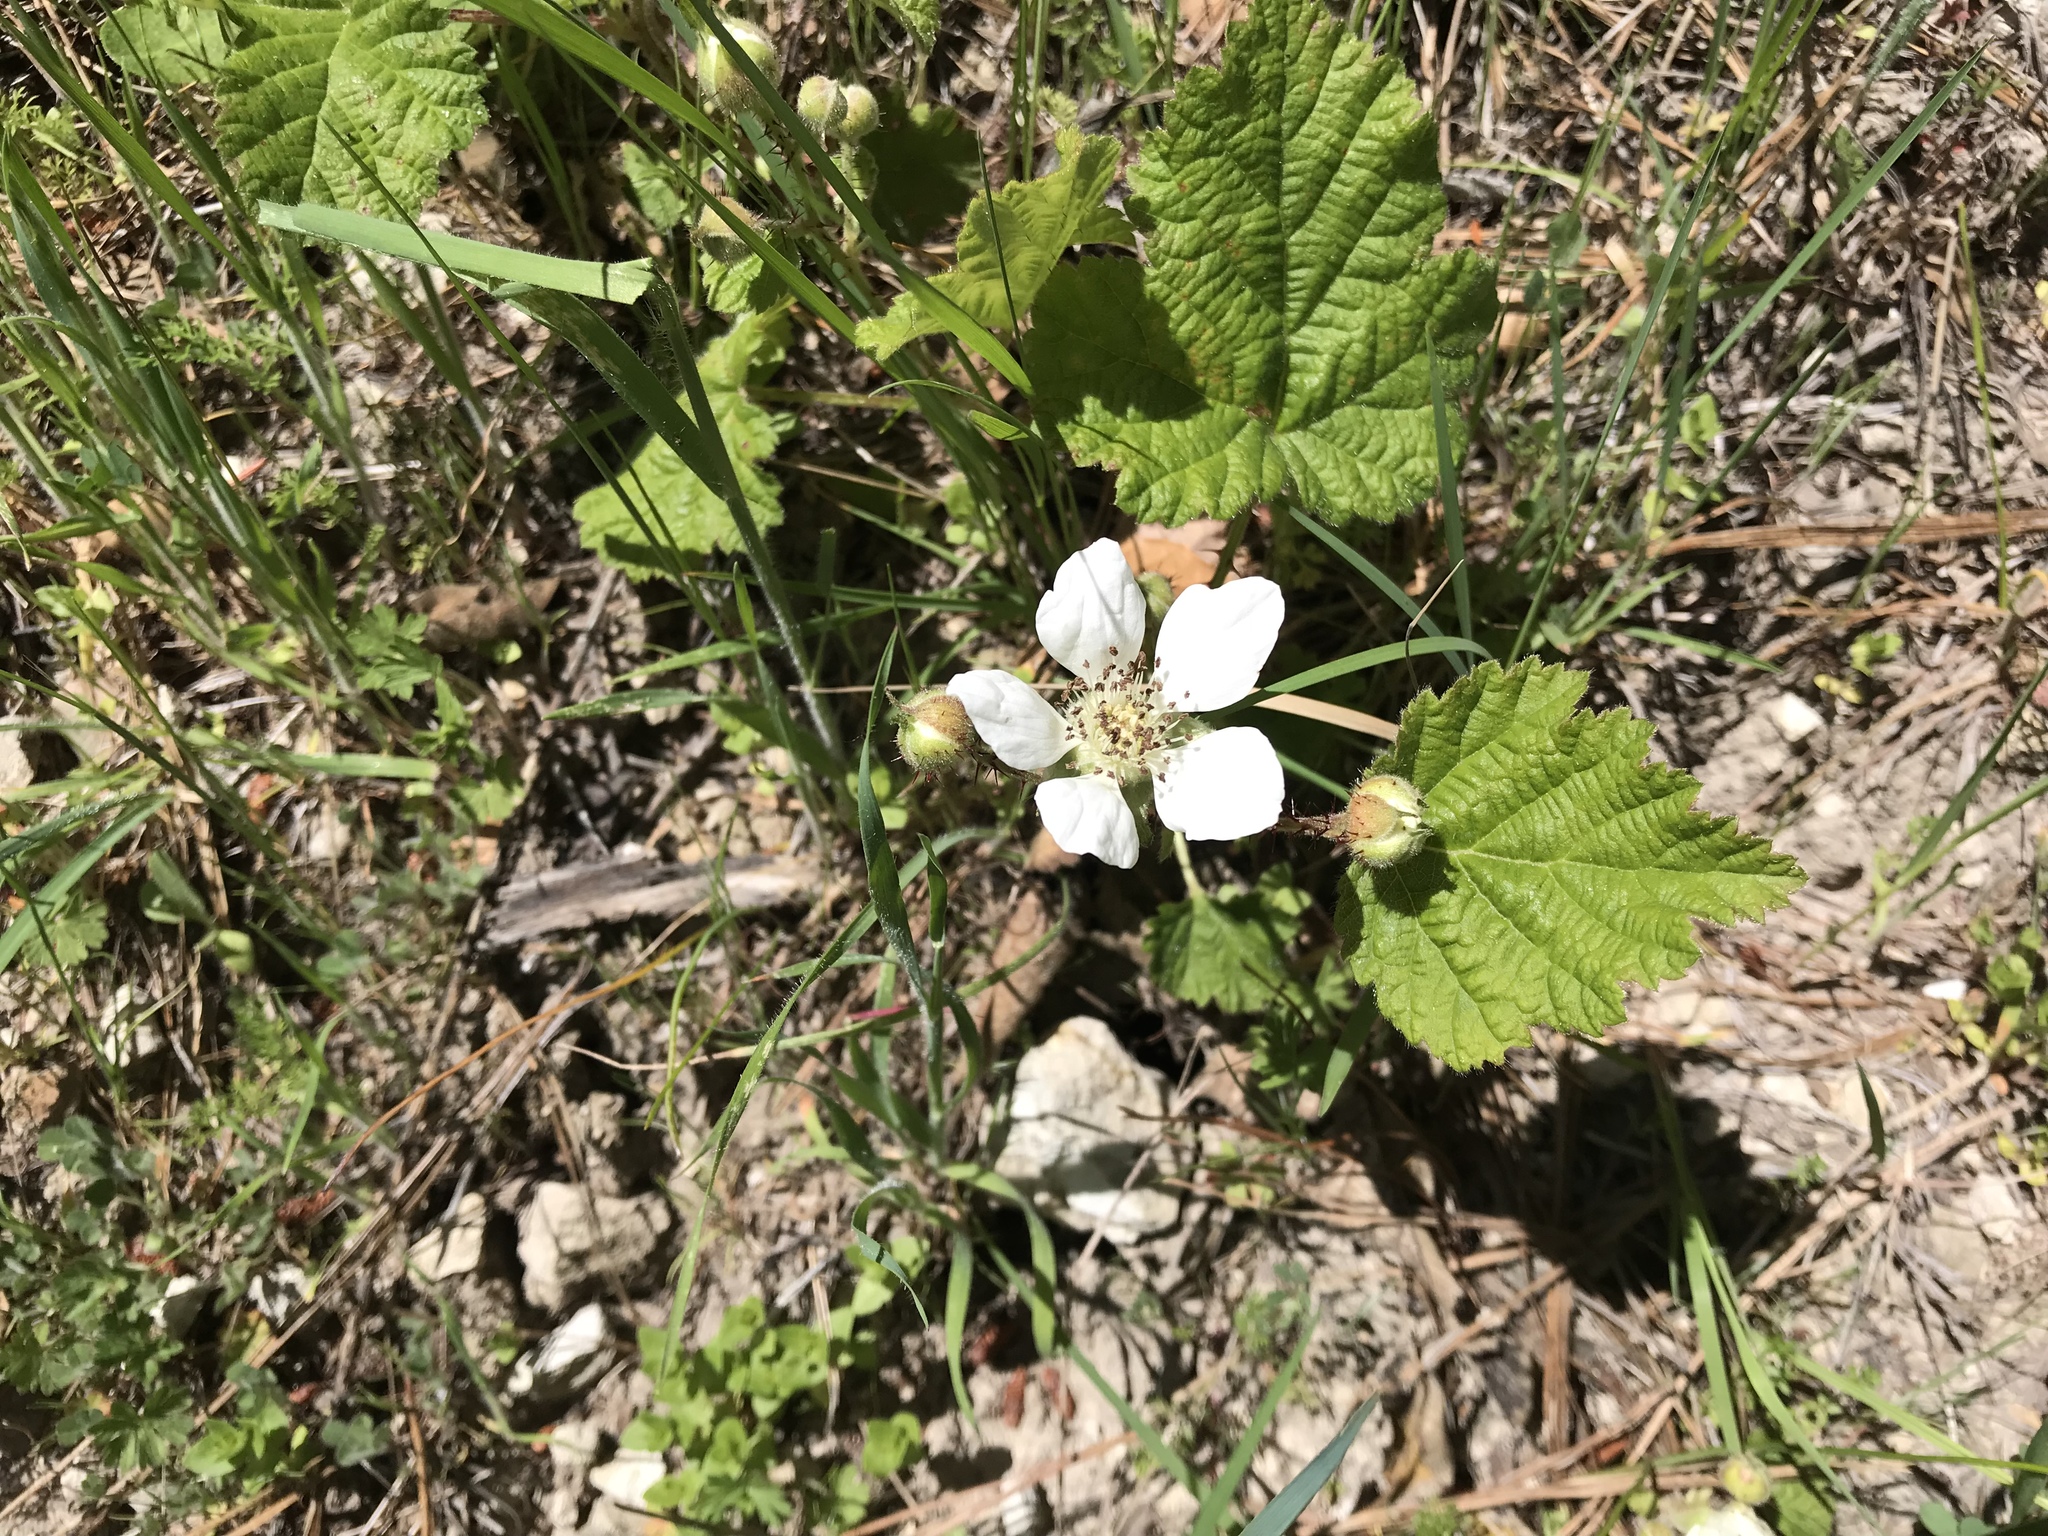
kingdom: Plantae
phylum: Tracheophyta
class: Magnoliopsida
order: Rosales
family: Rosaceae
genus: Rubus
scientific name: Rubus ursinus
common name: Pacific blackberry
